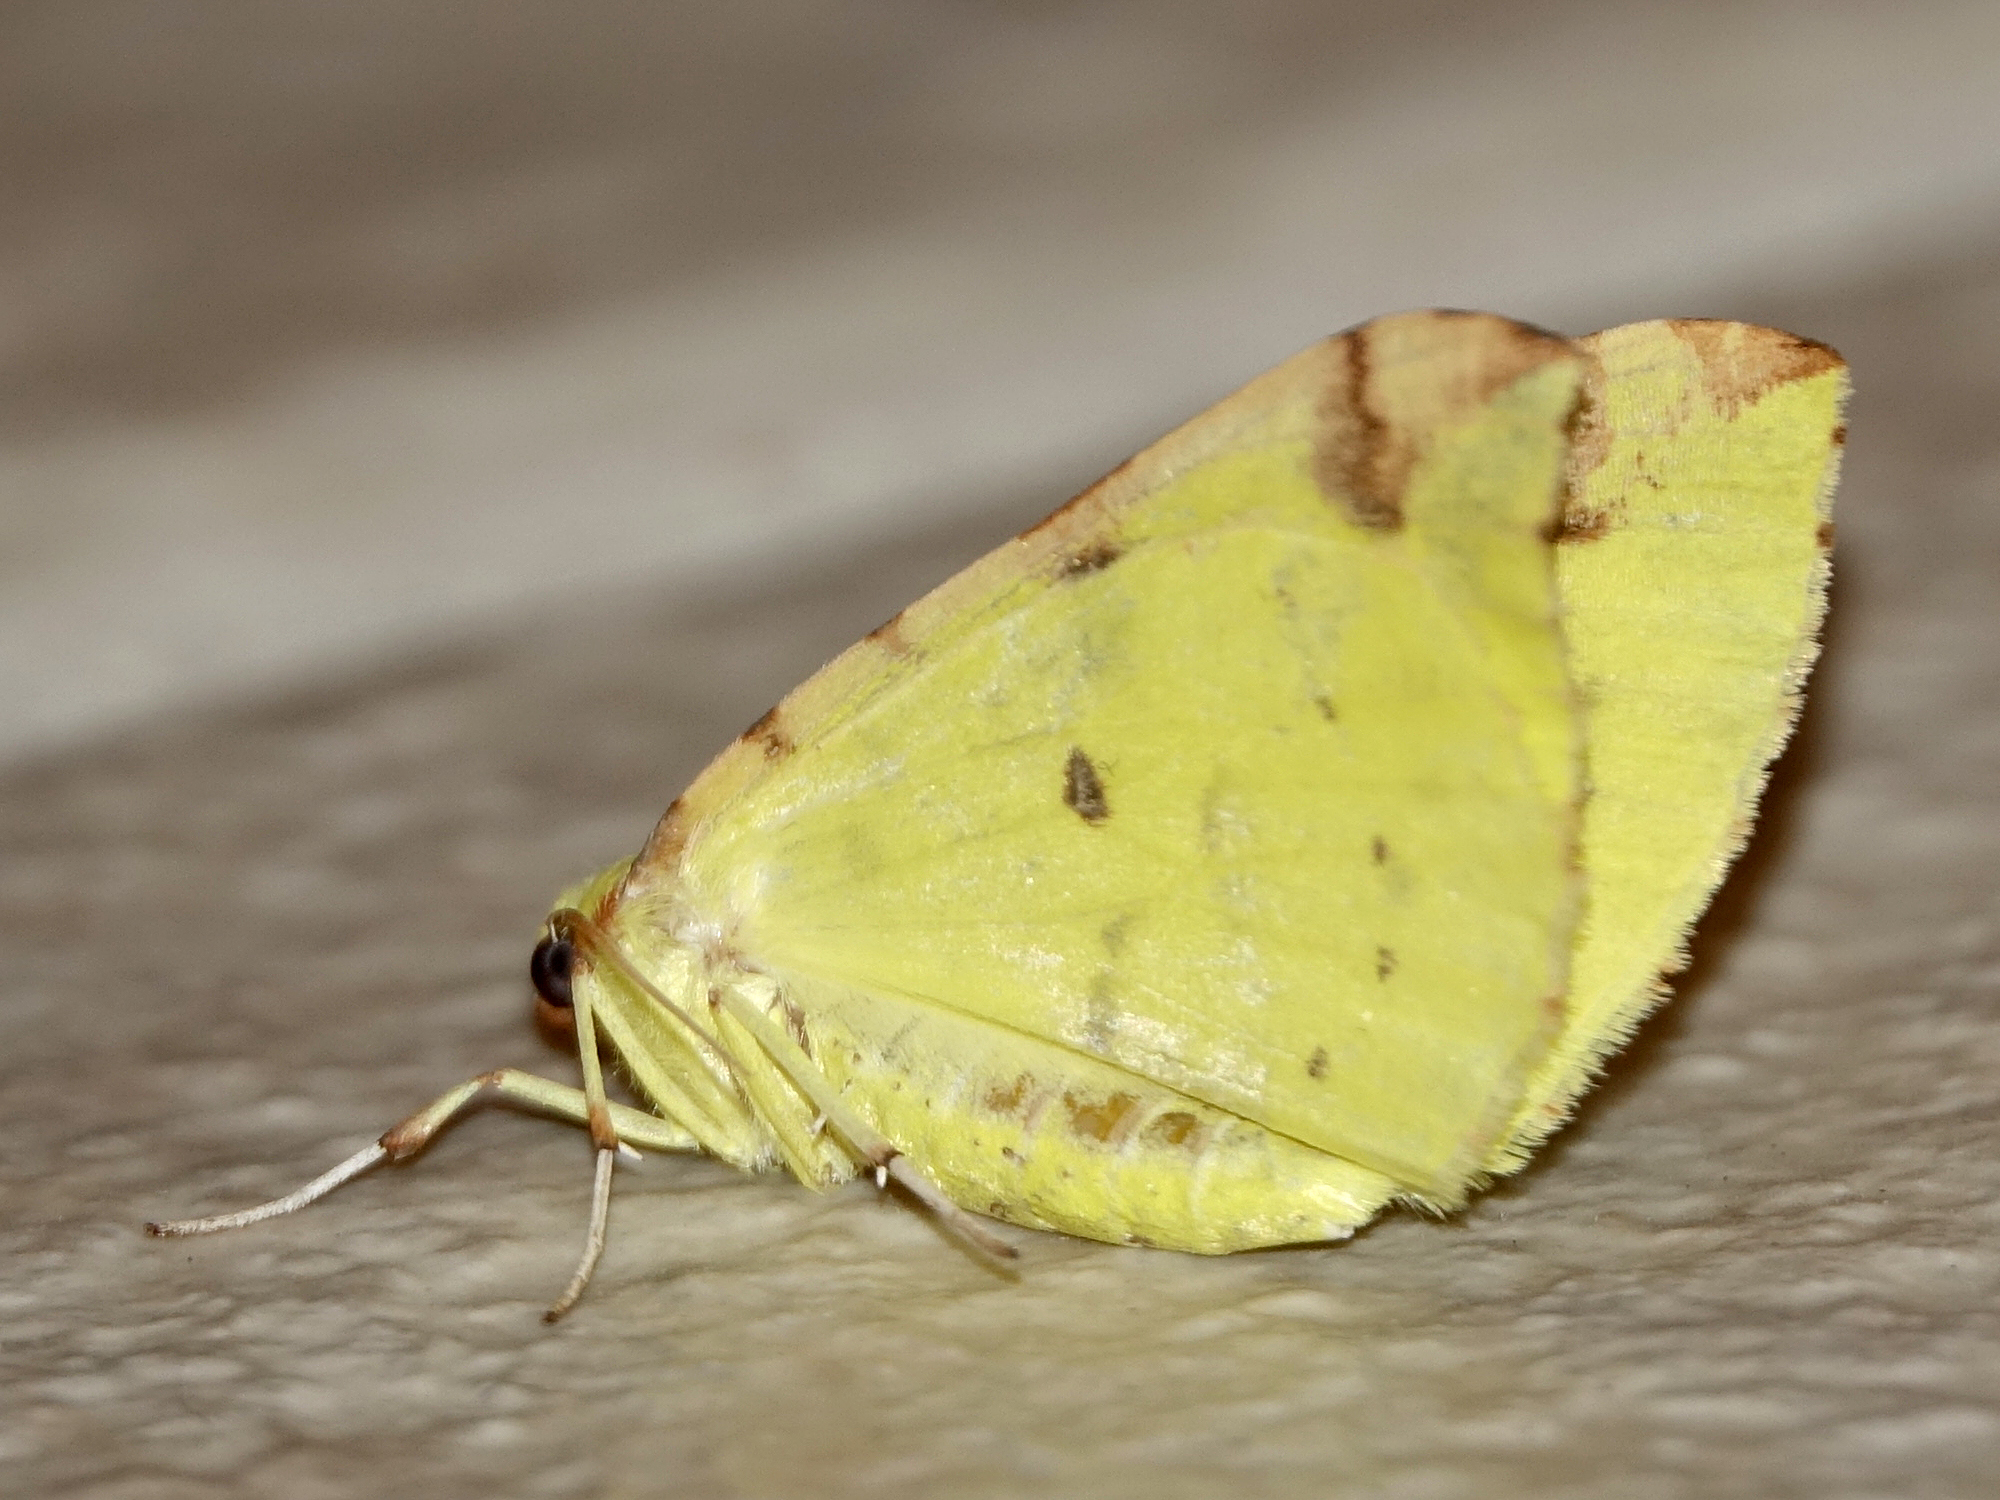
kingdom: Animalia
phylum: Arthropoda
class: Insecta
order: Lepidoptera
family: Geometridae
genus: Opisthograptis
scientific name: Opisthograptis luteolata
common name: Brimstone moth
